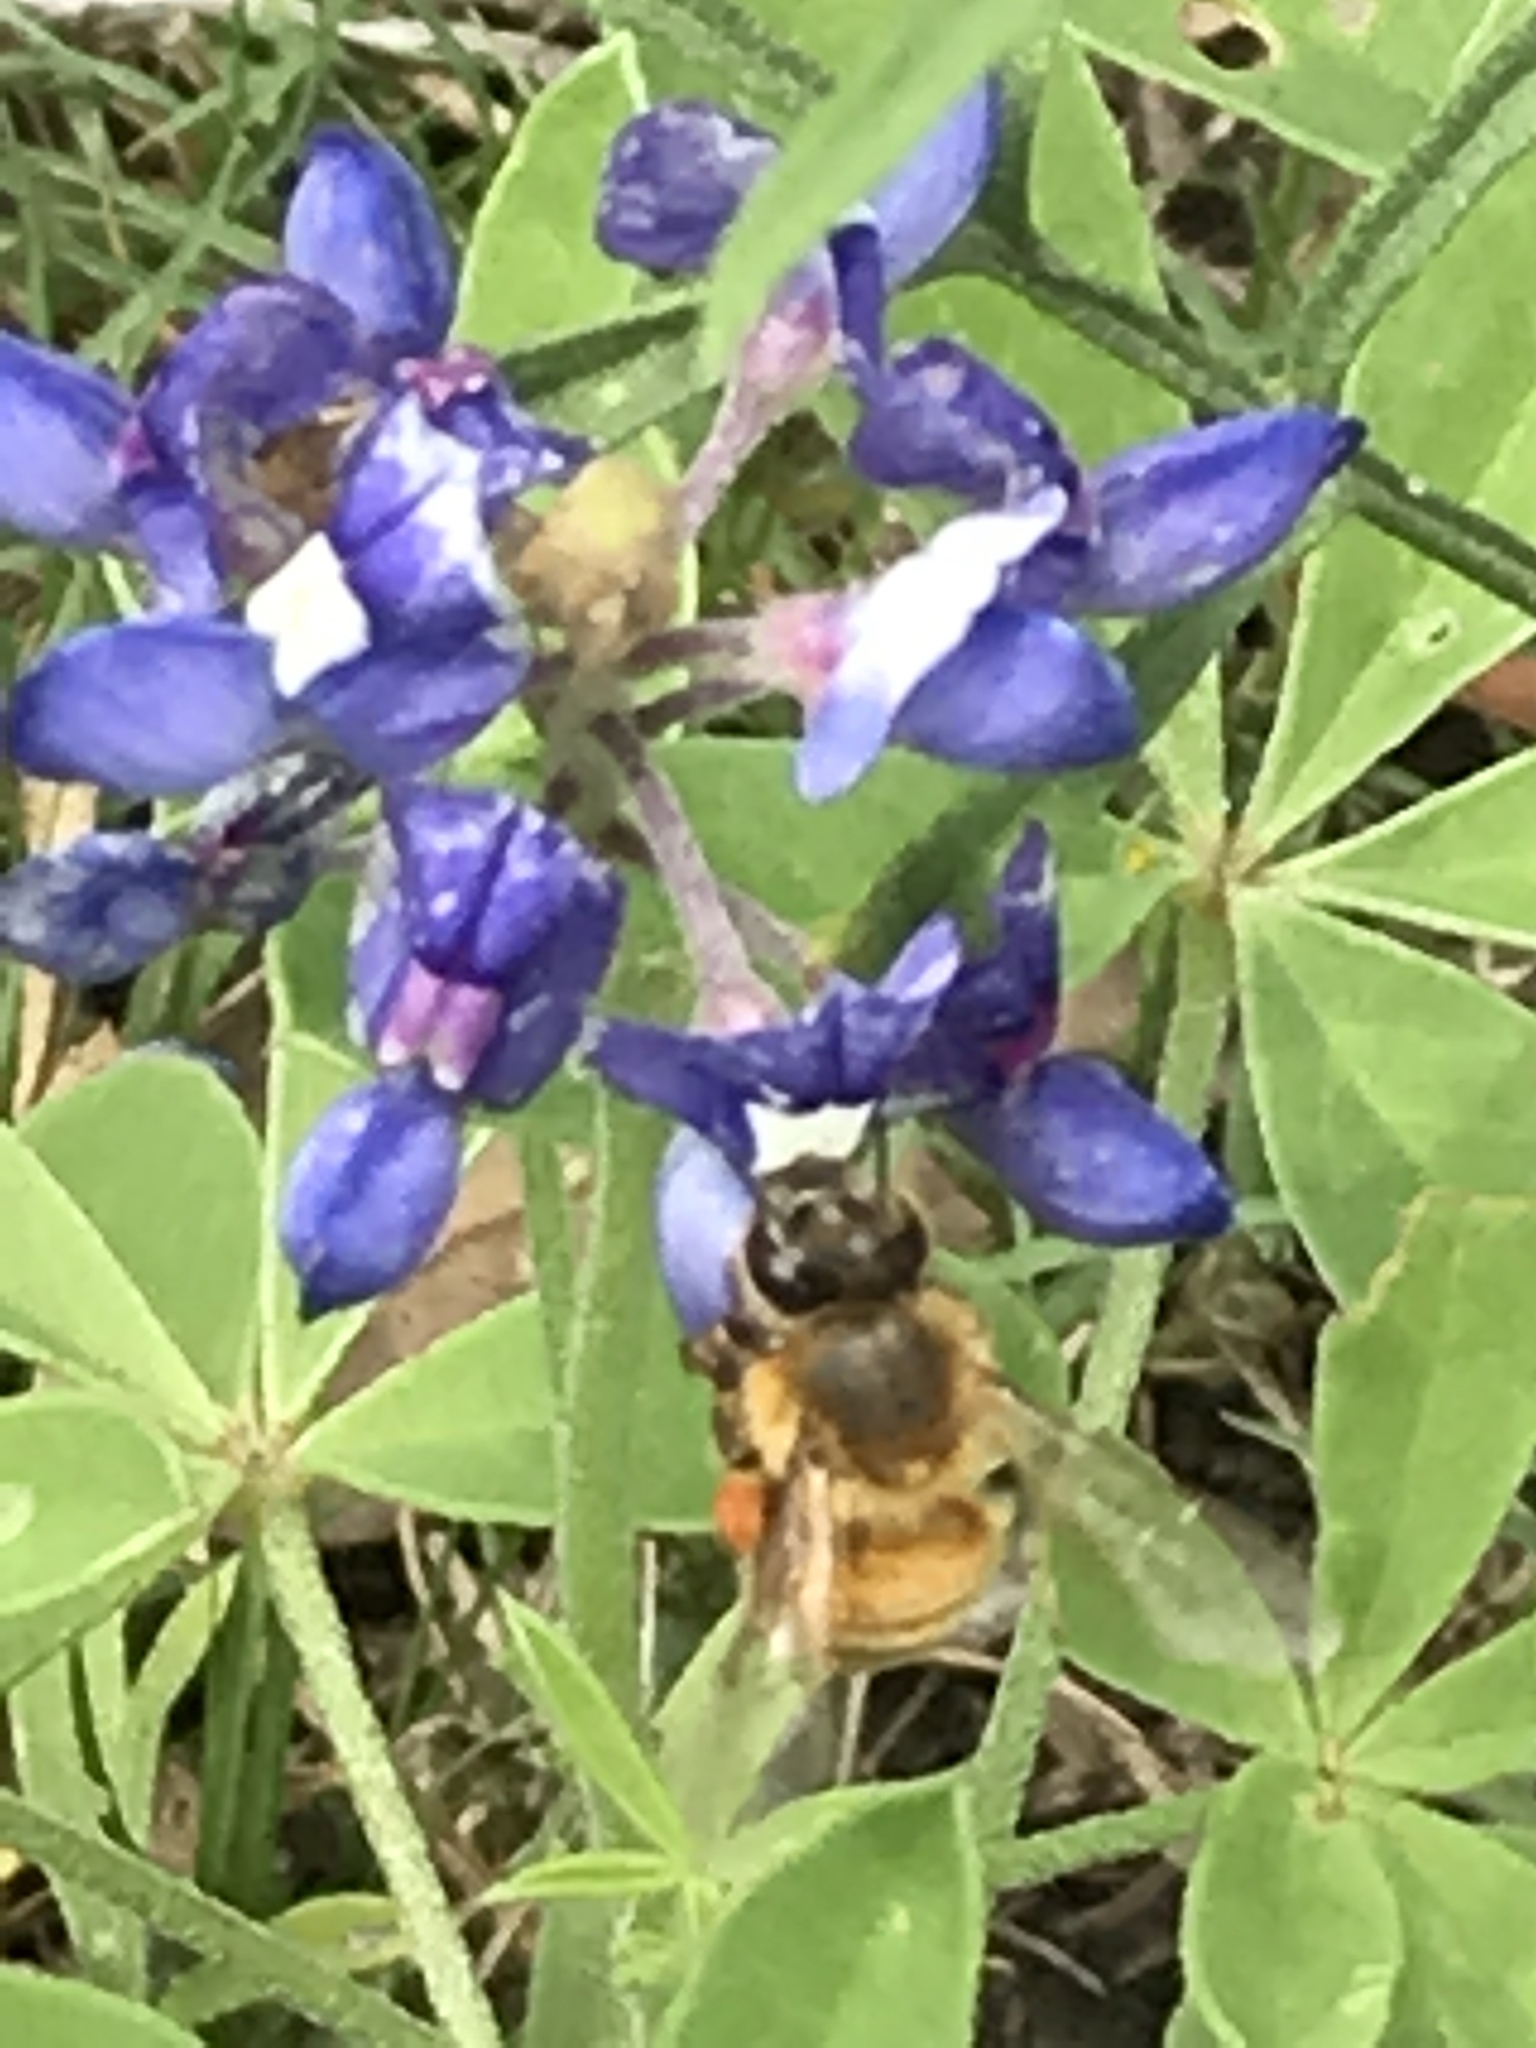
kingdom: Animalia
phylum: Arthropoda
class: Insecta
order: Hymenoptera
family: Apidae
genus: Apis
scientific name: Apis mellifera
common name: Honey bee
